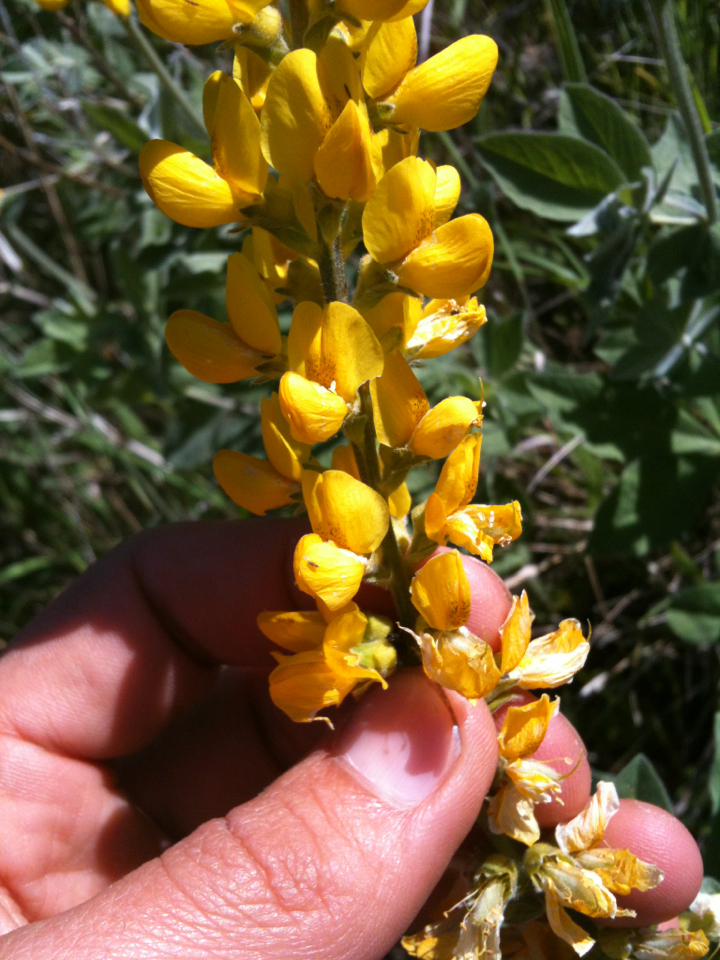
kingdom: Plantae
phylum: Tracheophyta
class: Magnoliopsida
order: Fabales
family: Fabaceae
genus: Thermopsis
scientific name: Thermopsis californica
